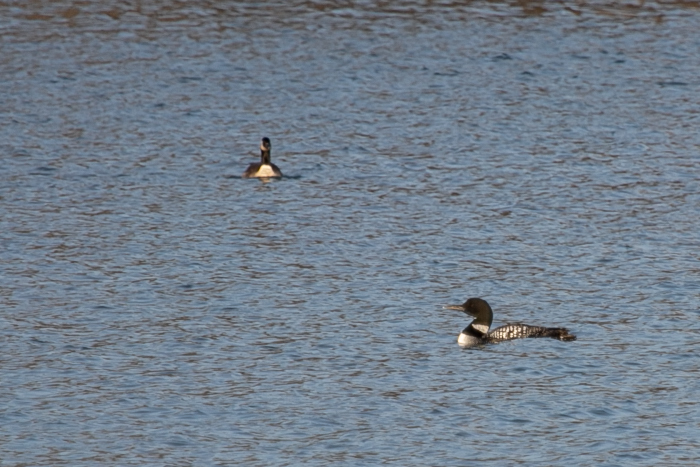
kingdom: Animalia
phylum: Chordata
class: Aves
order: Gaviiformes
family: Gaviidae
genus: Gavia
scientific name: Gavia immer
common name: Common loon
